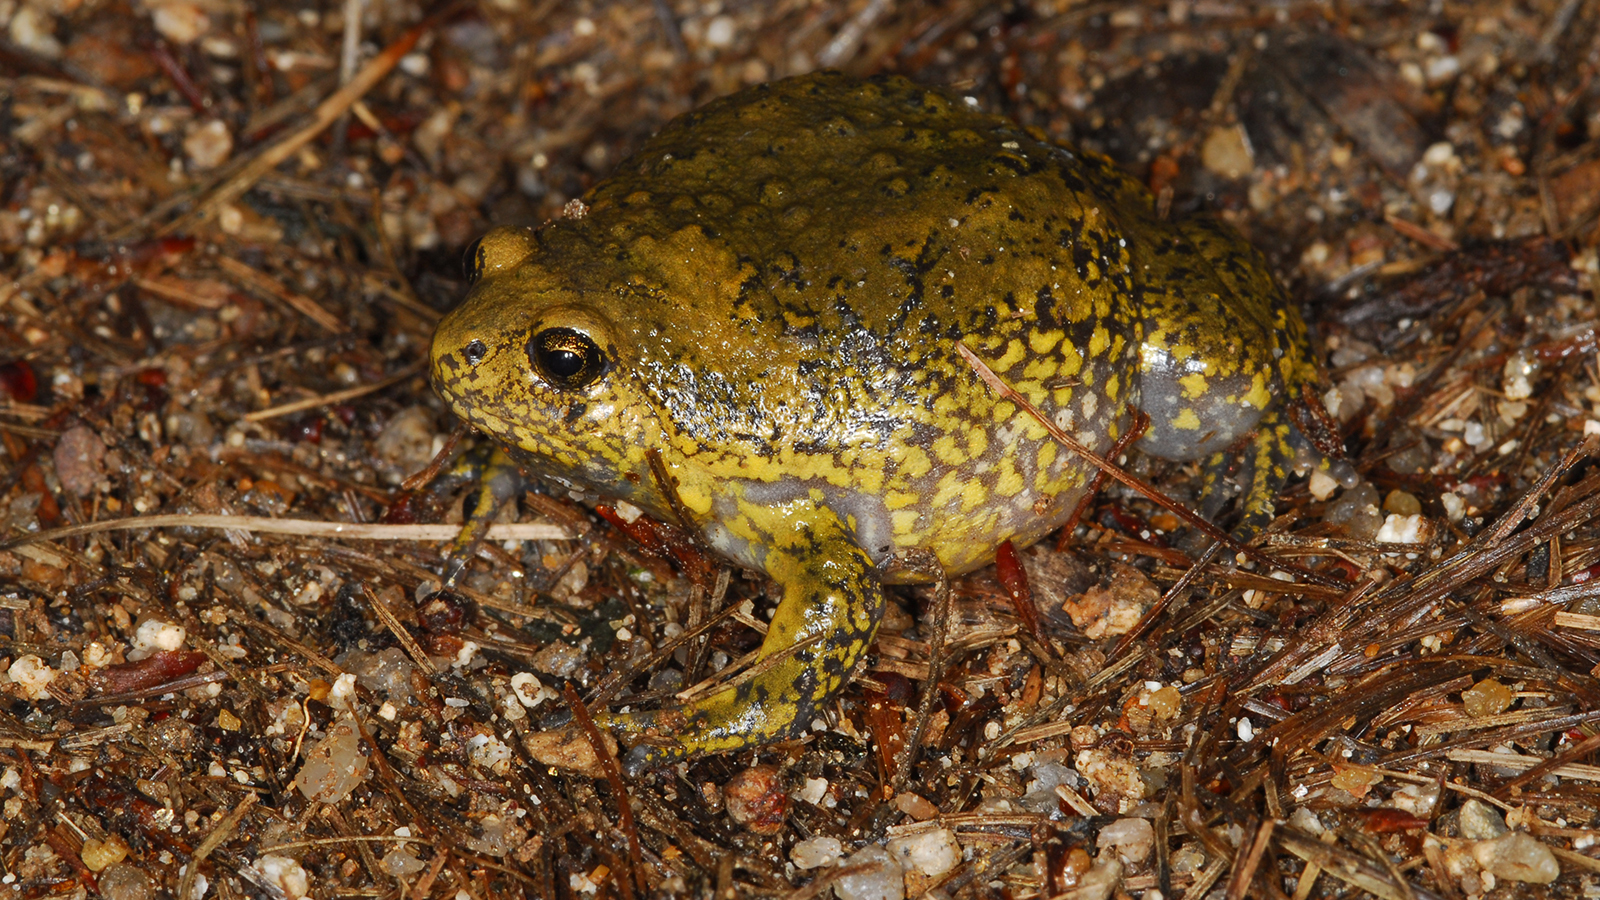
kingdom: Animalia
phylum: Chordata
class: Amphibia
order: Anura
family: Microhylidae
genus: Kaloula
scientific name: Kaloula borealis
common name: Boreal digging frog
